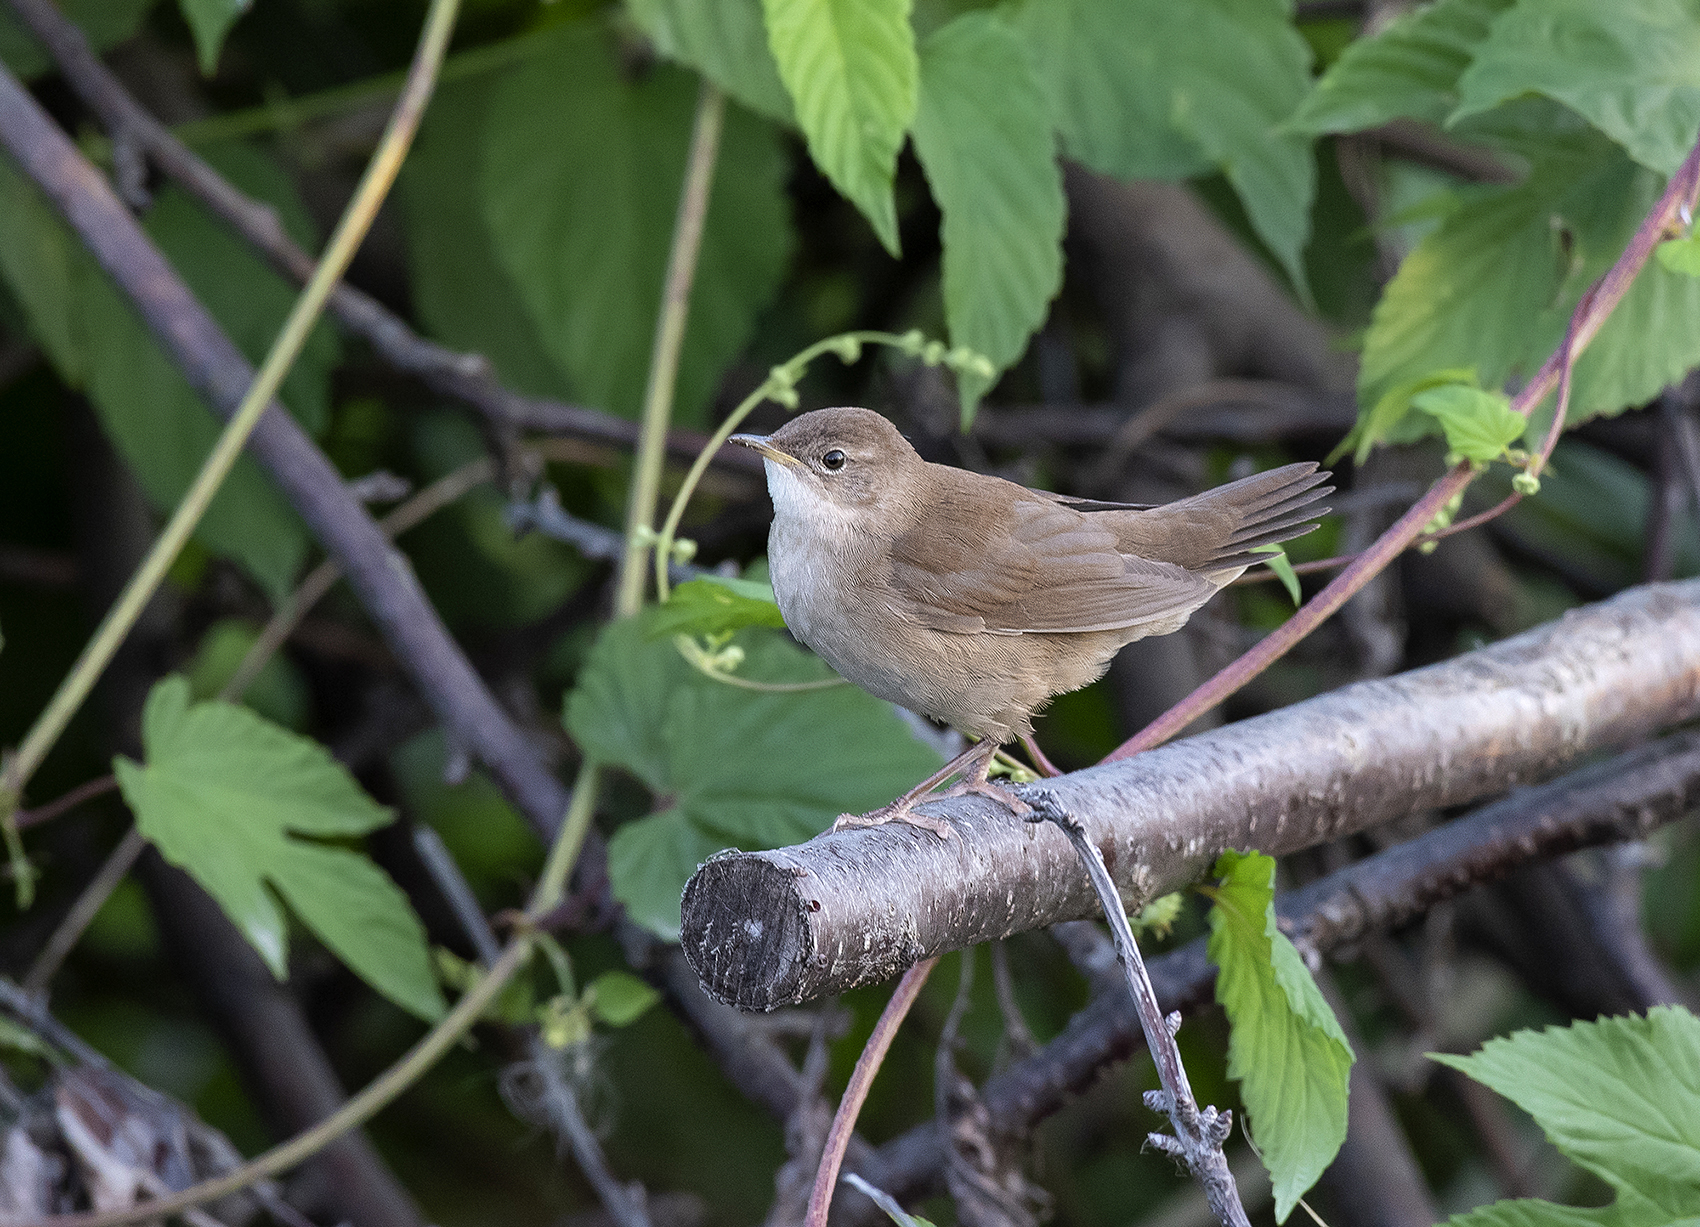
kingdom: Animalia
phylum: Chordata
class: Aves
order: Passeriformes
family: Locustellidae
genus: Locustella
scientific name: Locustella luscinioides
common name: Savi's warbler
